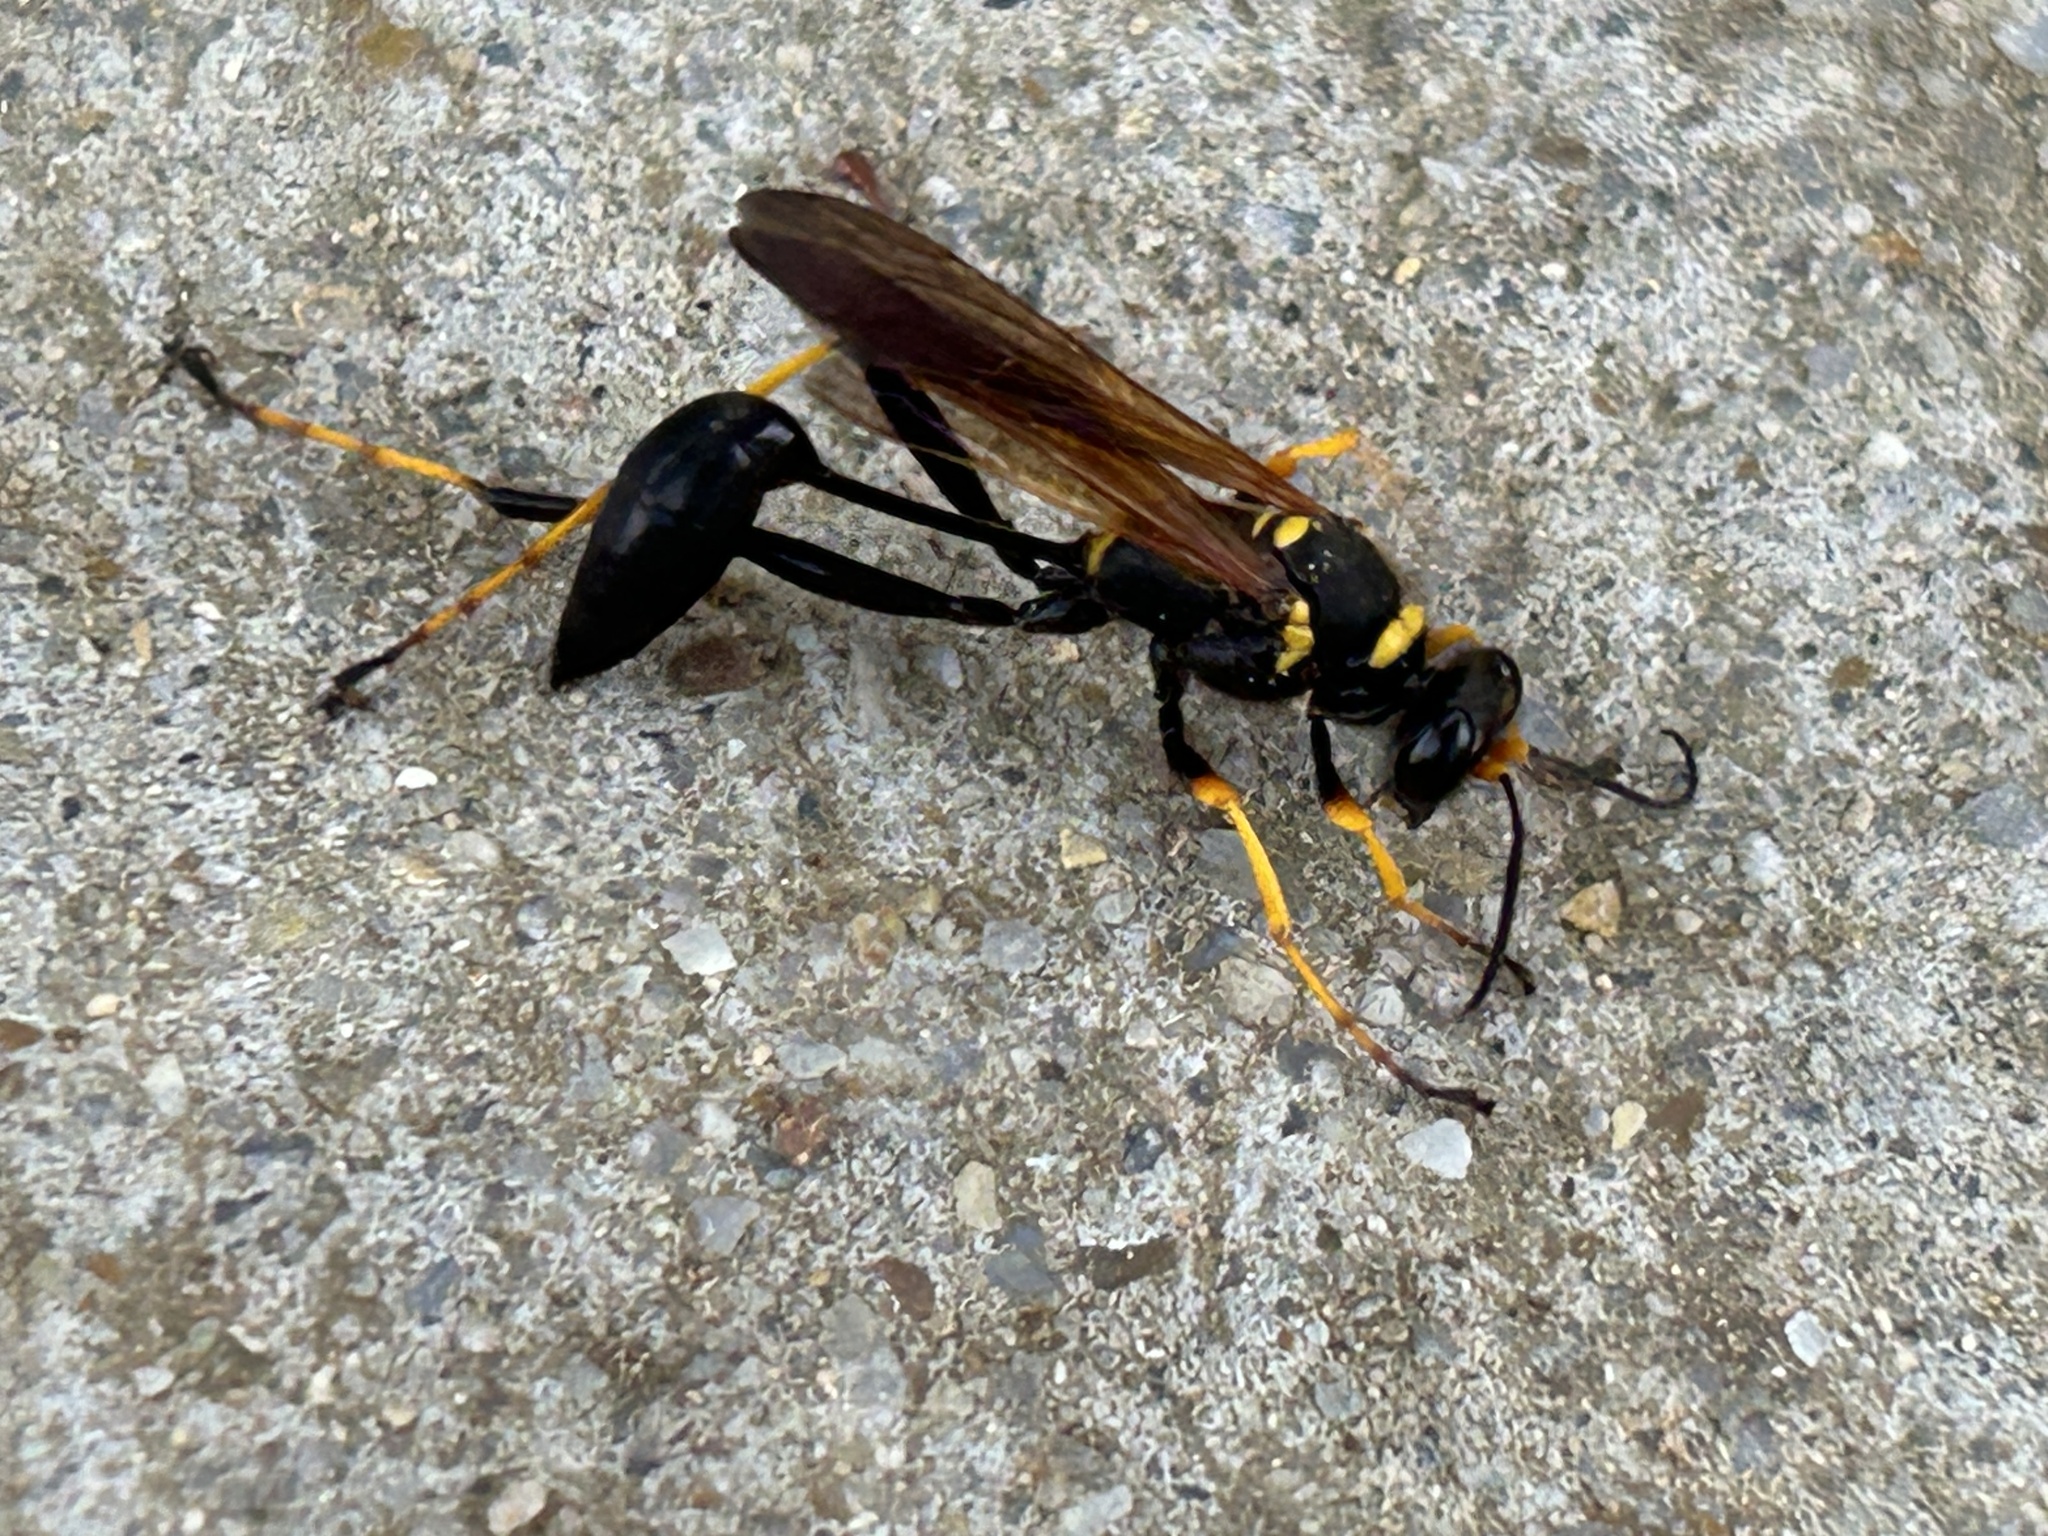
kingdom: Animalia
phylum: Arthropoda
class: Insecta
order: Hymenoptera
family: Sphecidae
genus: Sceliphron
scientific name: Sceliphron caementarium
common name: Mud dauber
